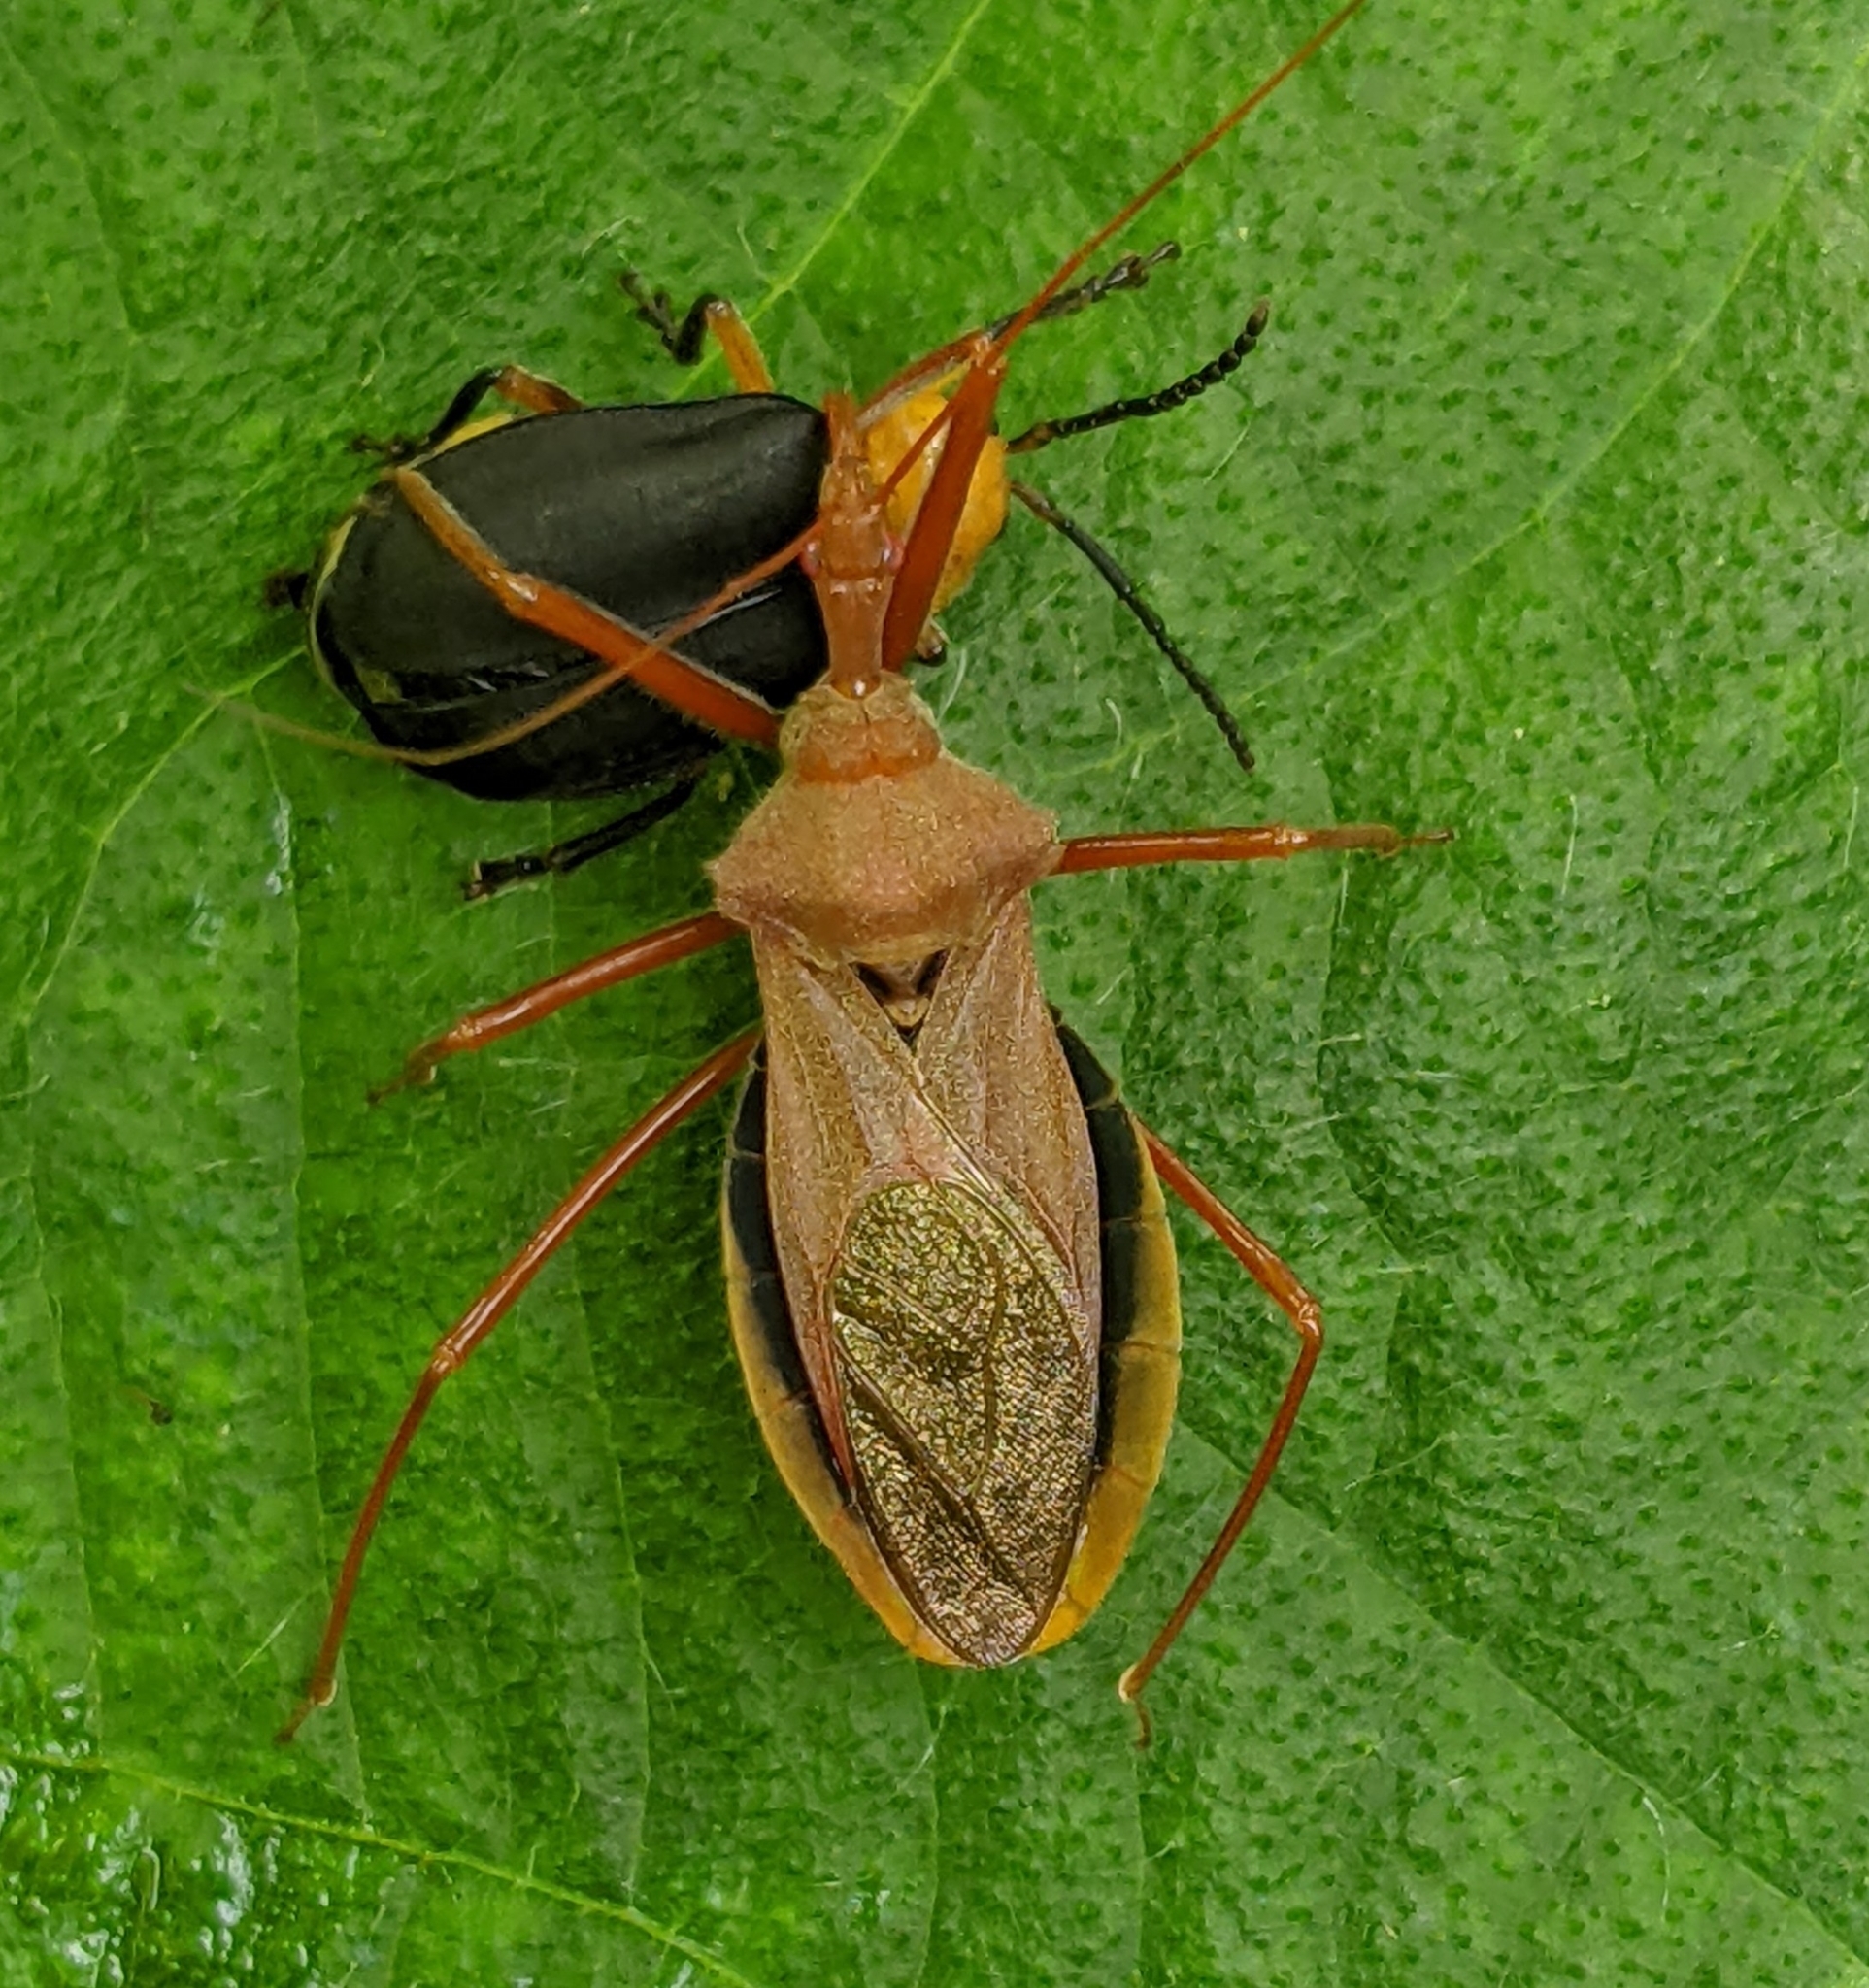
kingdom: Animalia
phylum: Arthropoda
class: Insecta
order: Hemiptera
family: Reduviidae
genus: Montina
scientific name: Montina confusa
